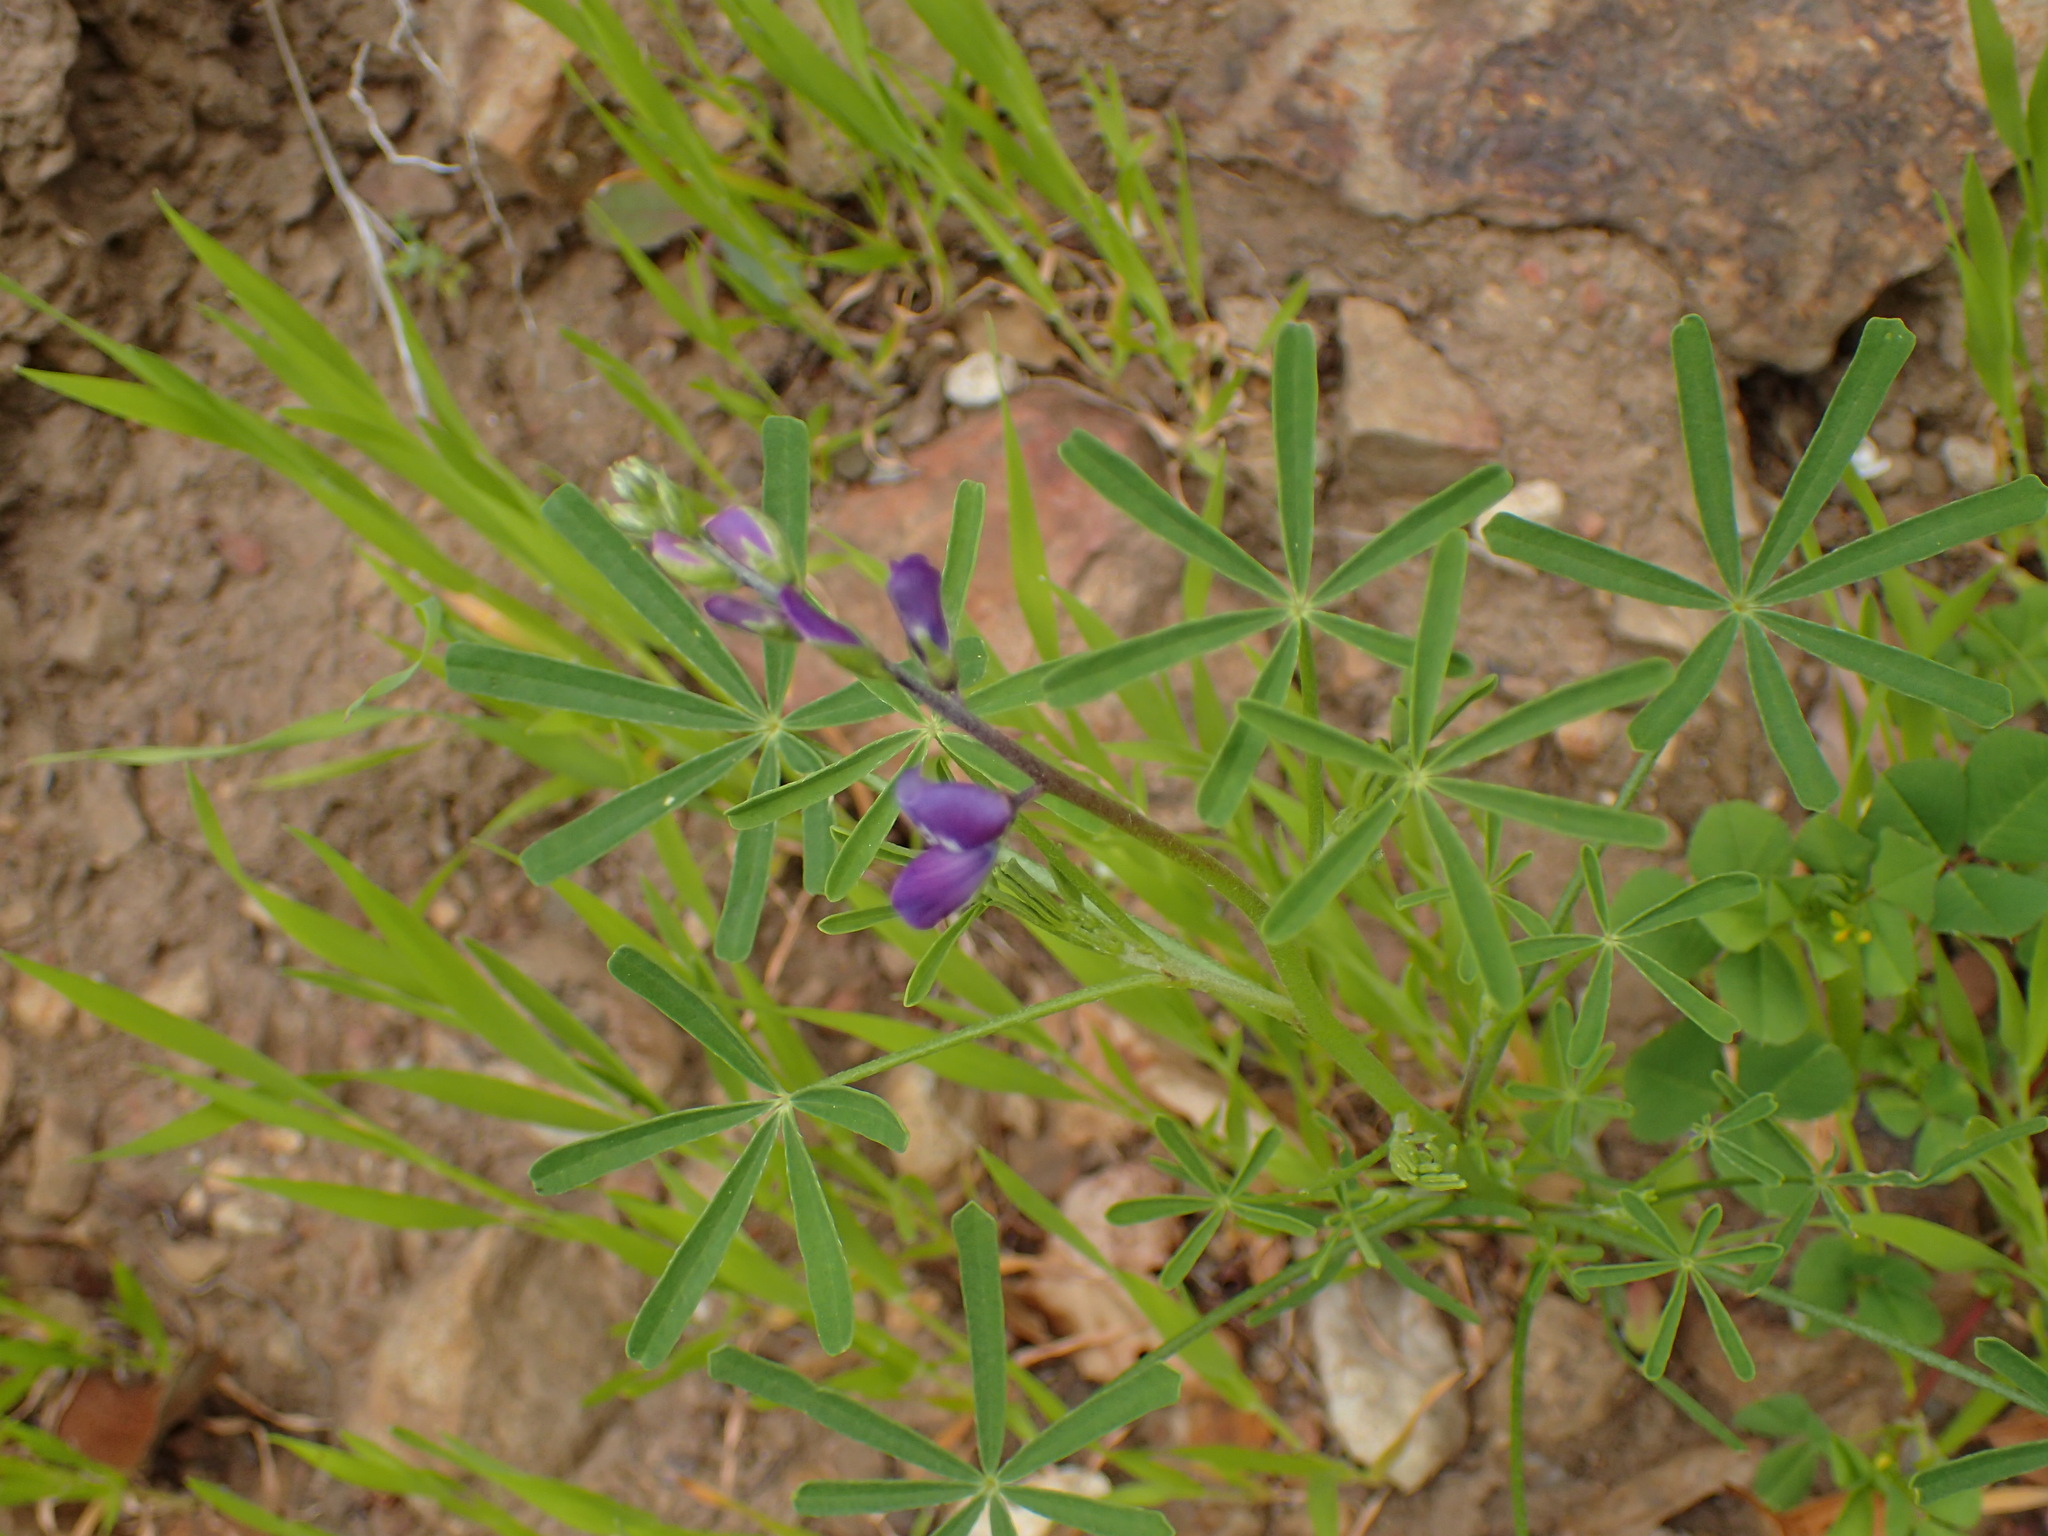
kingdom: Plantae
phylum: Tracheophyta
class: Magnoliopsida
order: Fabales
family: Fabaceae
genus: Lupinus
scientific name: Lupinus truncatus
